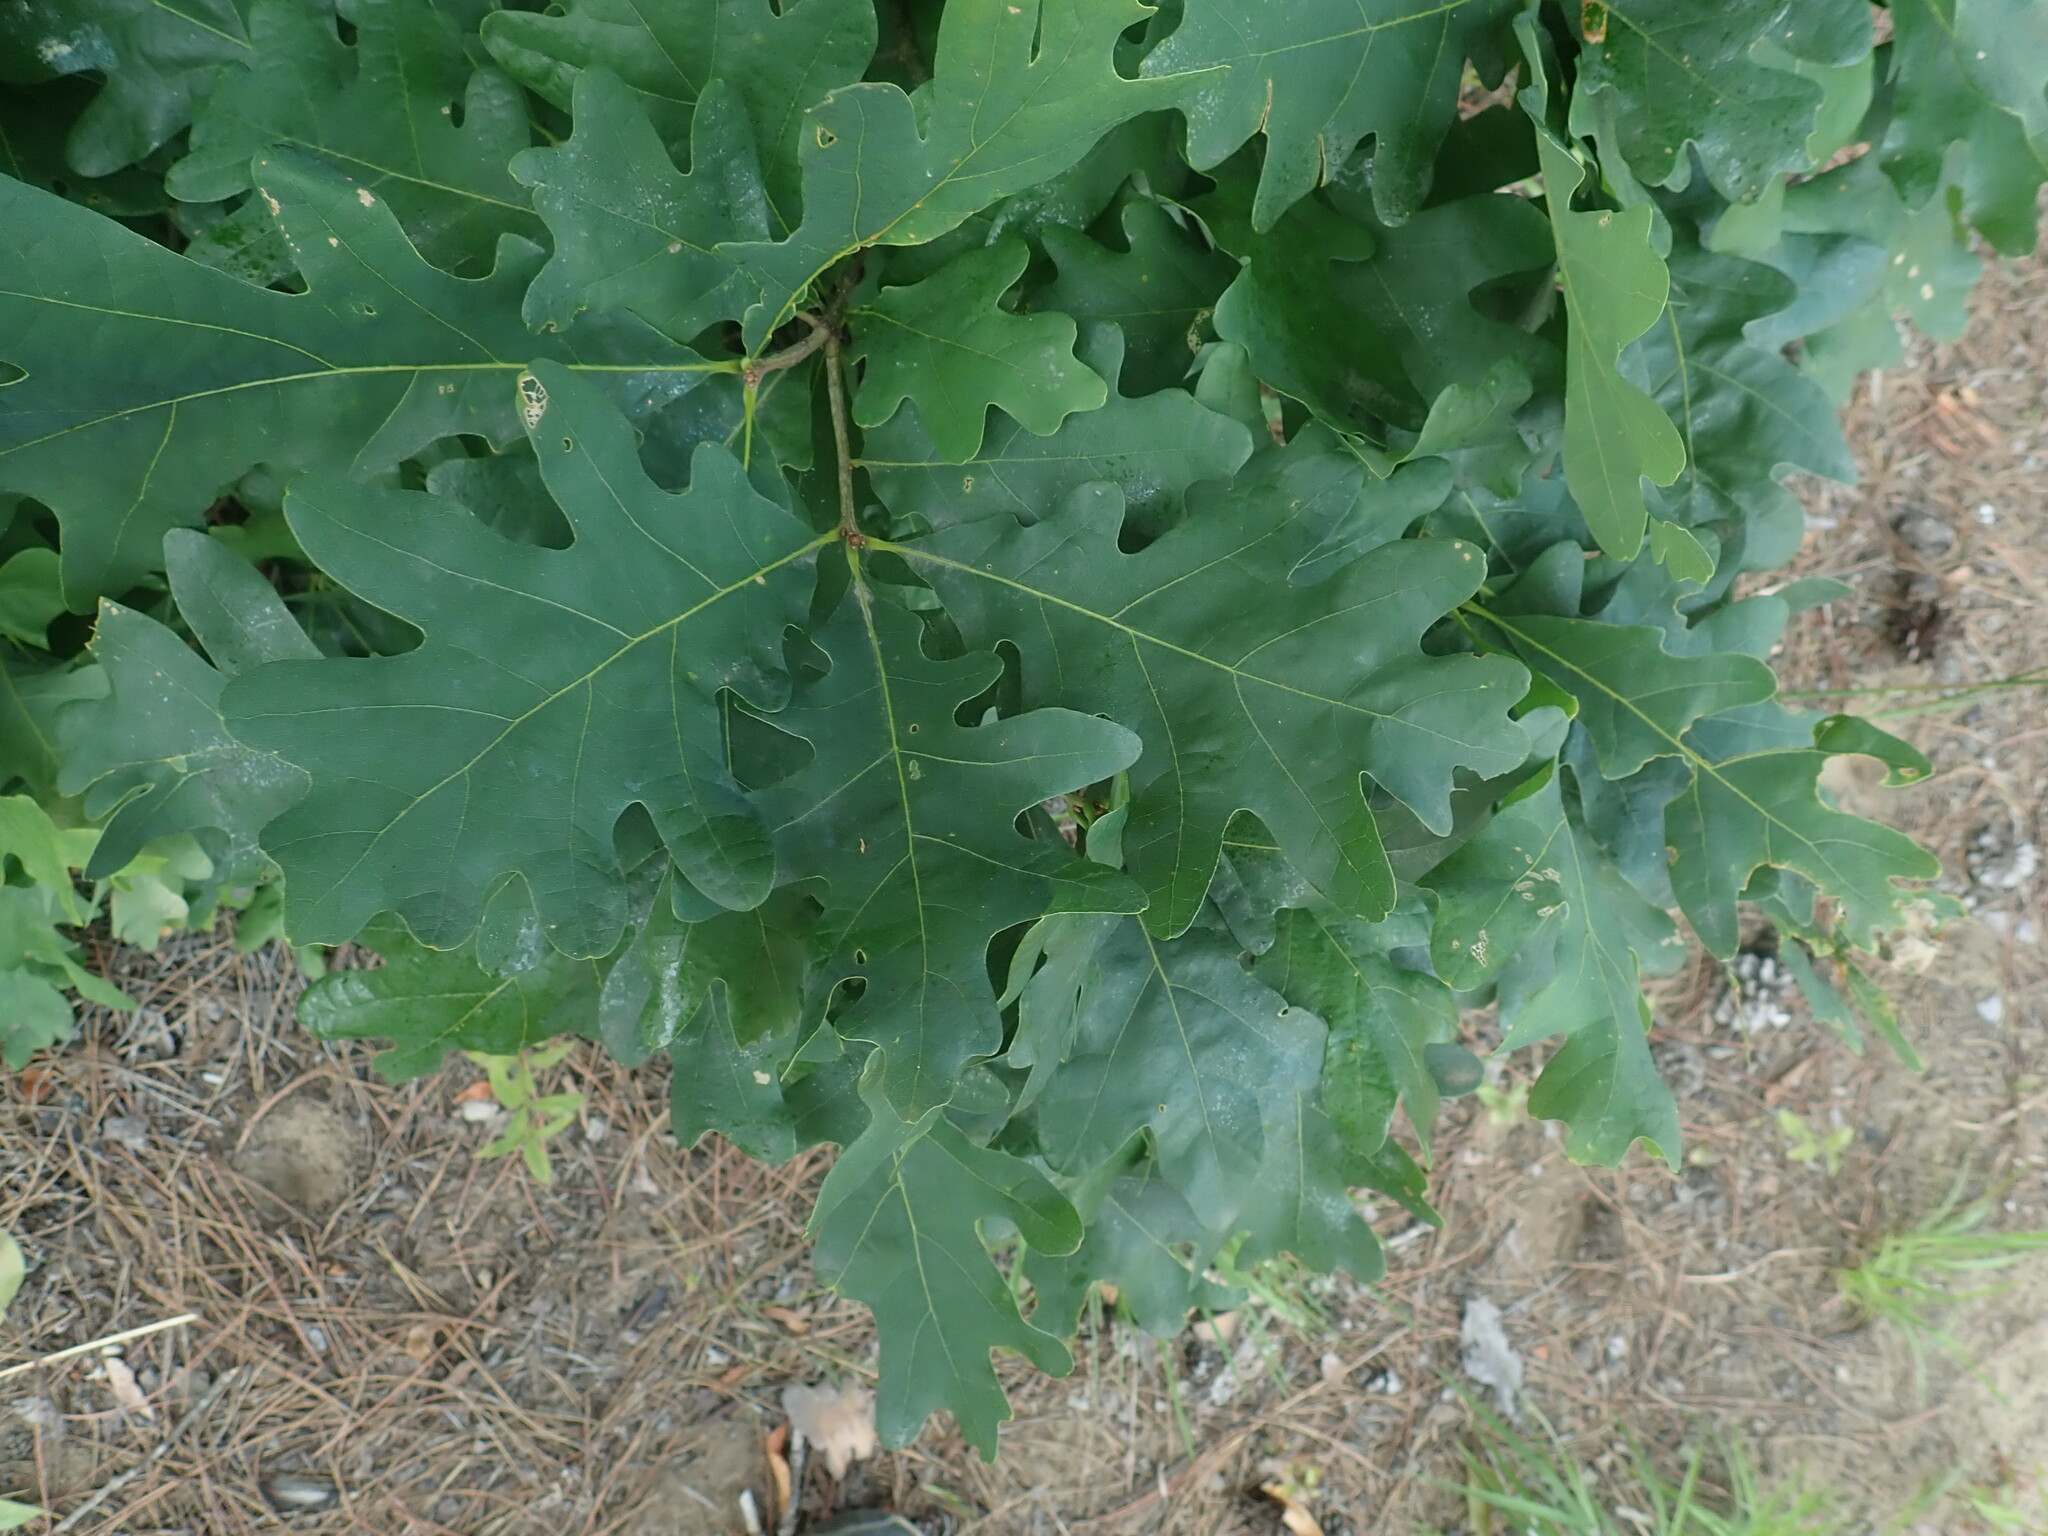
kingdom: Plantae
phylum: Tracheophyta
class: Magnoliopsida
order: Fagales
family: Fagaceae
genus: Quercus
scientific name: Quercus alba
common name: White oak
